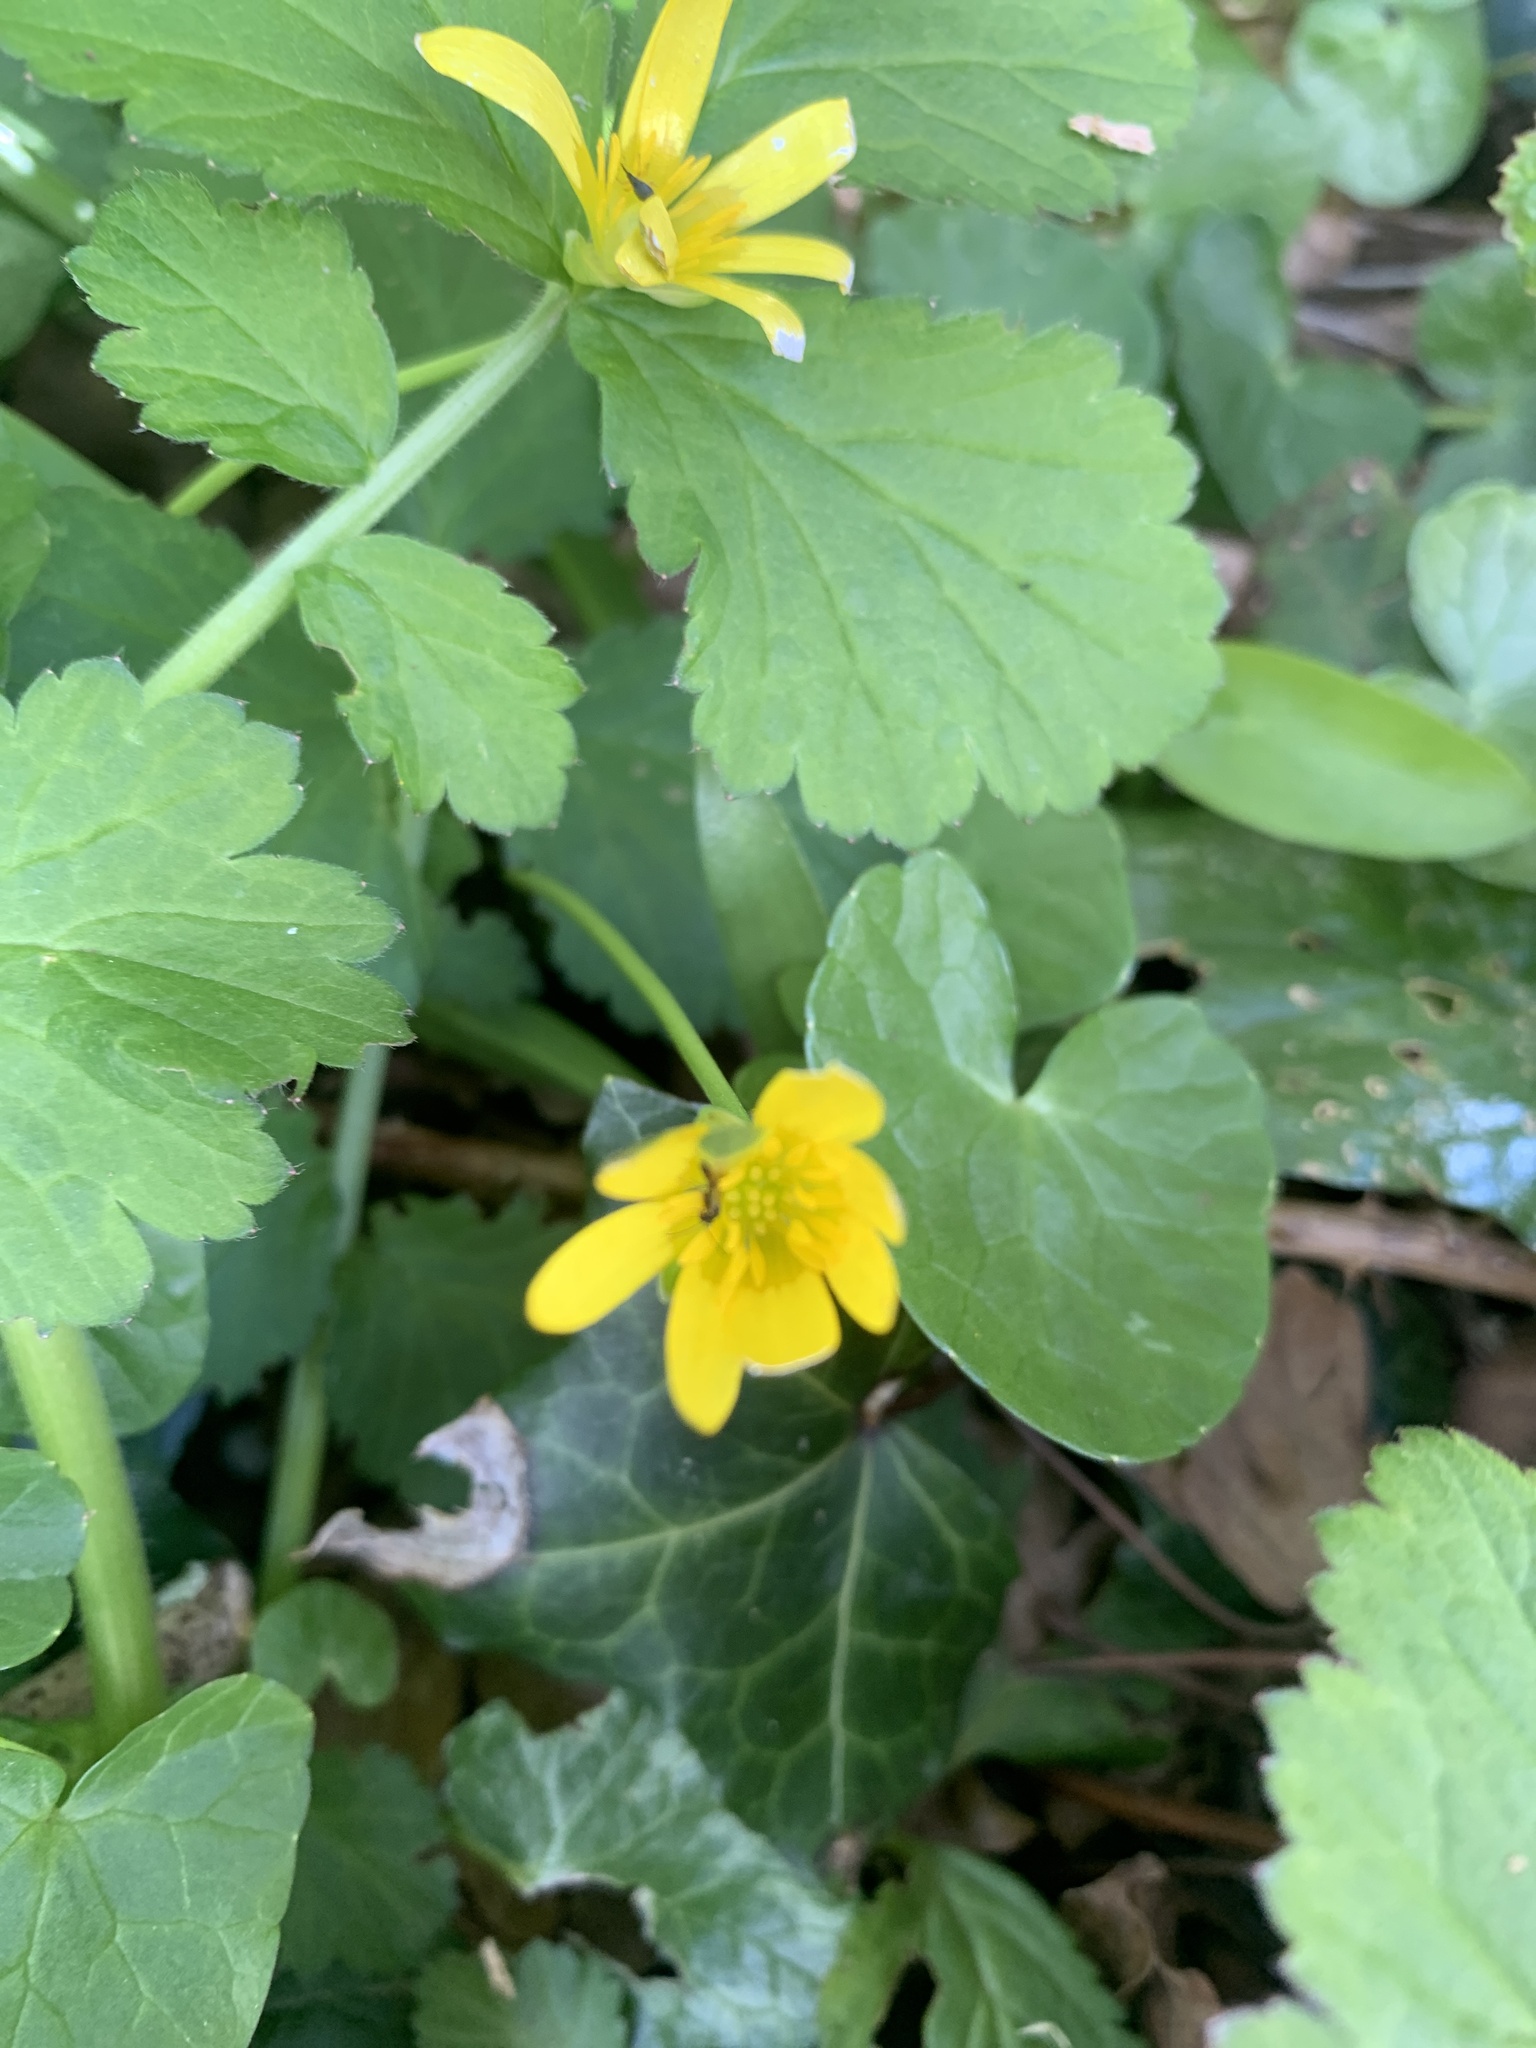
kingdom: Plantae
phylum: Tracheophyta
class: Magnoliopsida
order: Ranunculales
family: Ranunculaceae
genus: Ficaria
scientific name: Ficaria verna
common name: Lesser celandine
